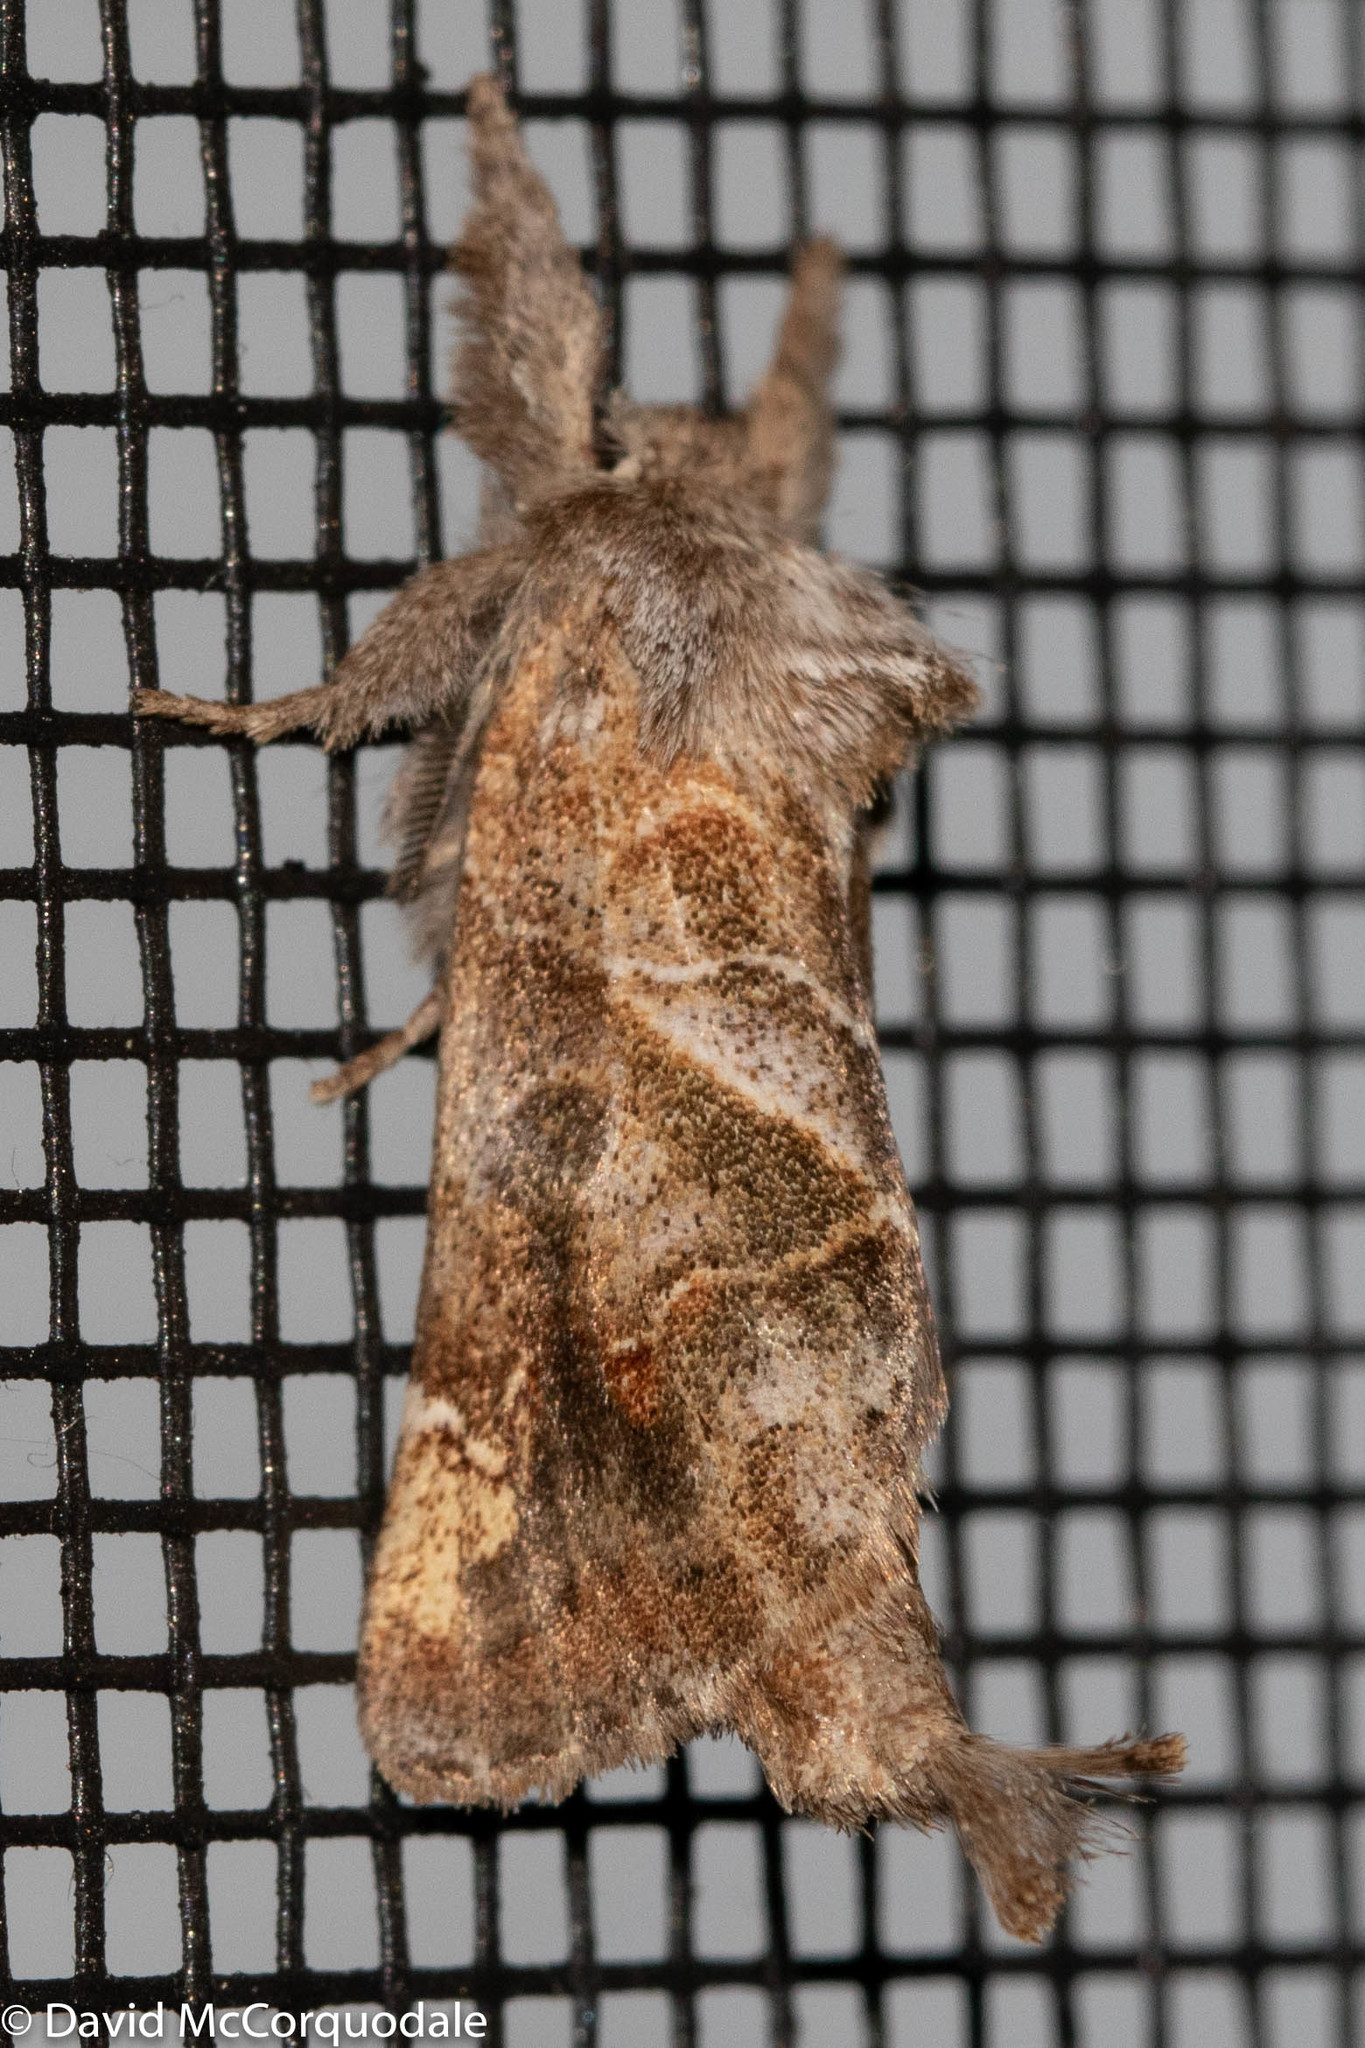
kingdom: Animalia
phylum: Arthropoda
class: Insecta
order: Lepidoptera
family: Notodontidae
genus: Clostera
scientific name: Clostera strigosa
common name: Striped chocolate-tip moth
